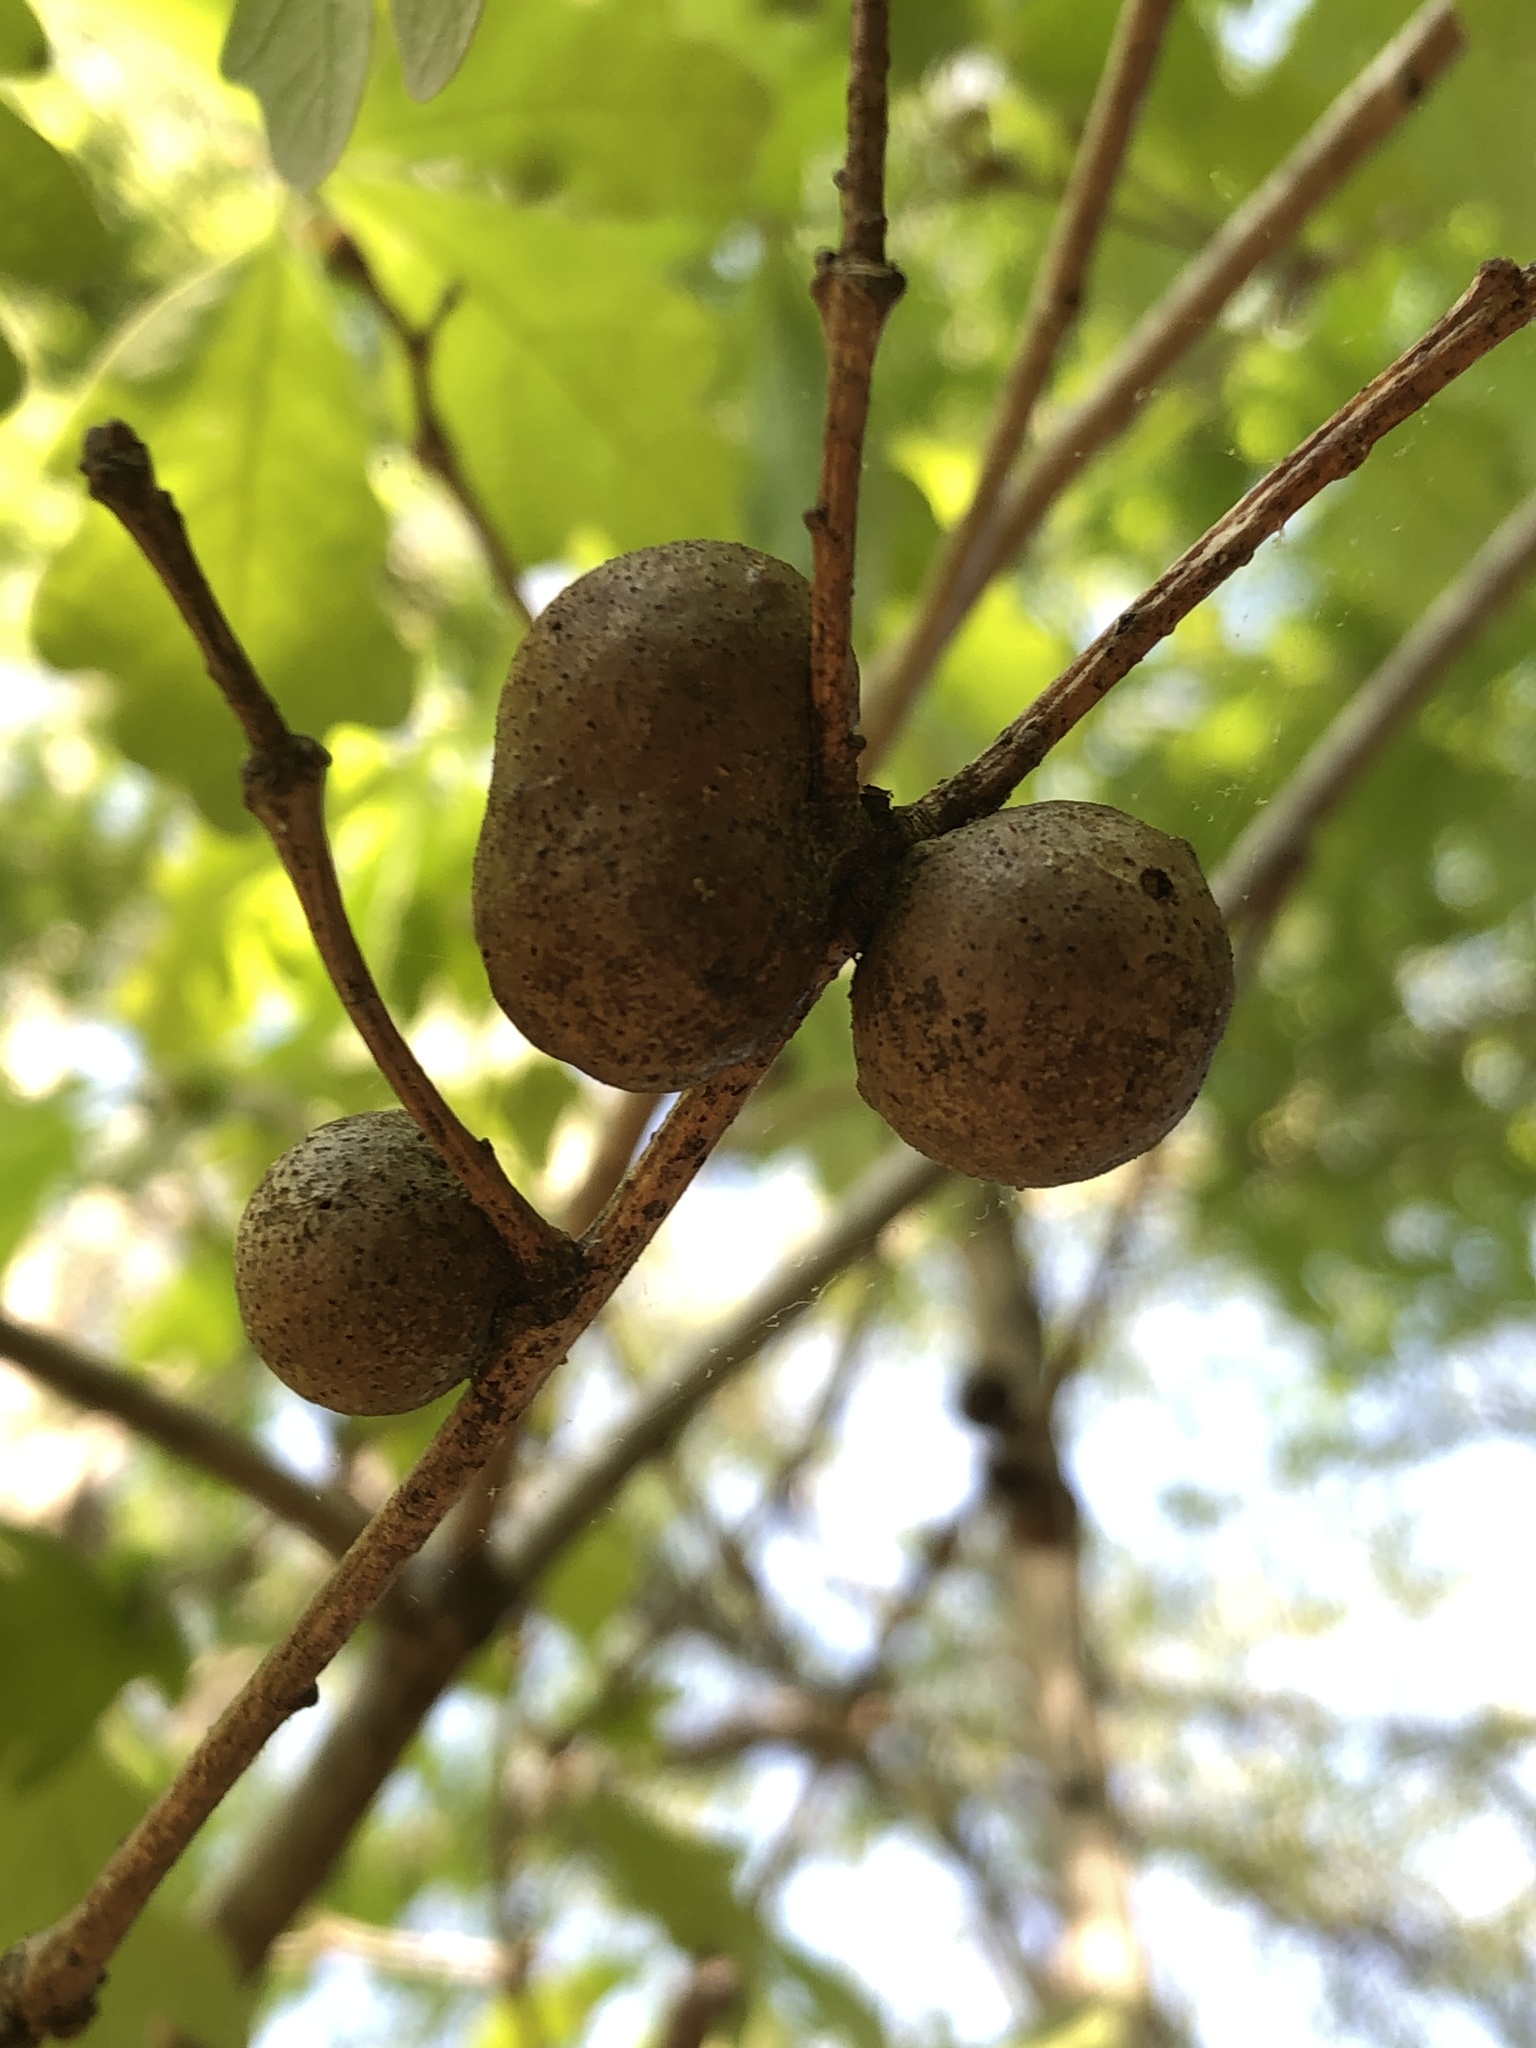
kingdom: Animalia
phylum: Arthropoda
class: Insecta
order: Hymenoptera
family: Cynipidae
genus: Disholcaspis
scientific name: Disholcaspis quercusglobulus
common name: Round bullet gall wasp
